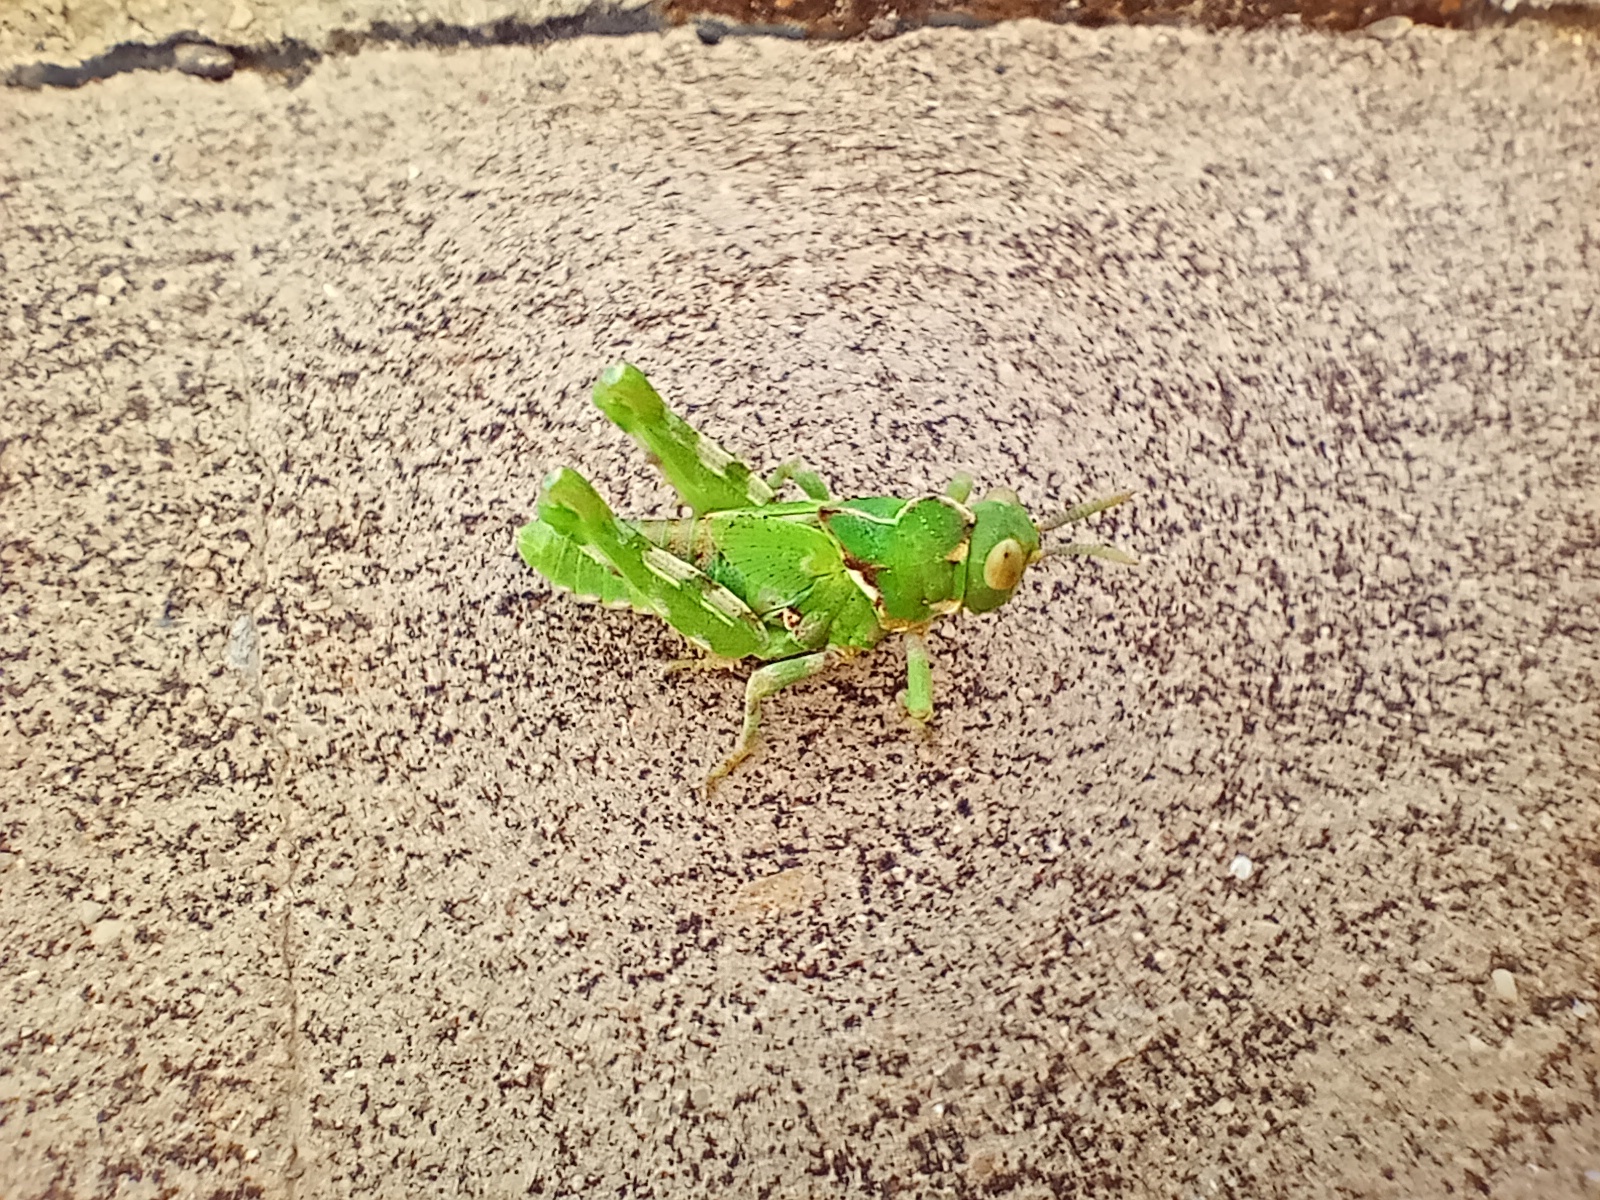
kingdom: Animalia
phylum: Arthropoda
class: Insecta
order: Orthoptera
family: Dericorythidae
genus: Dericorys
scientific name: Dericorys lobata
